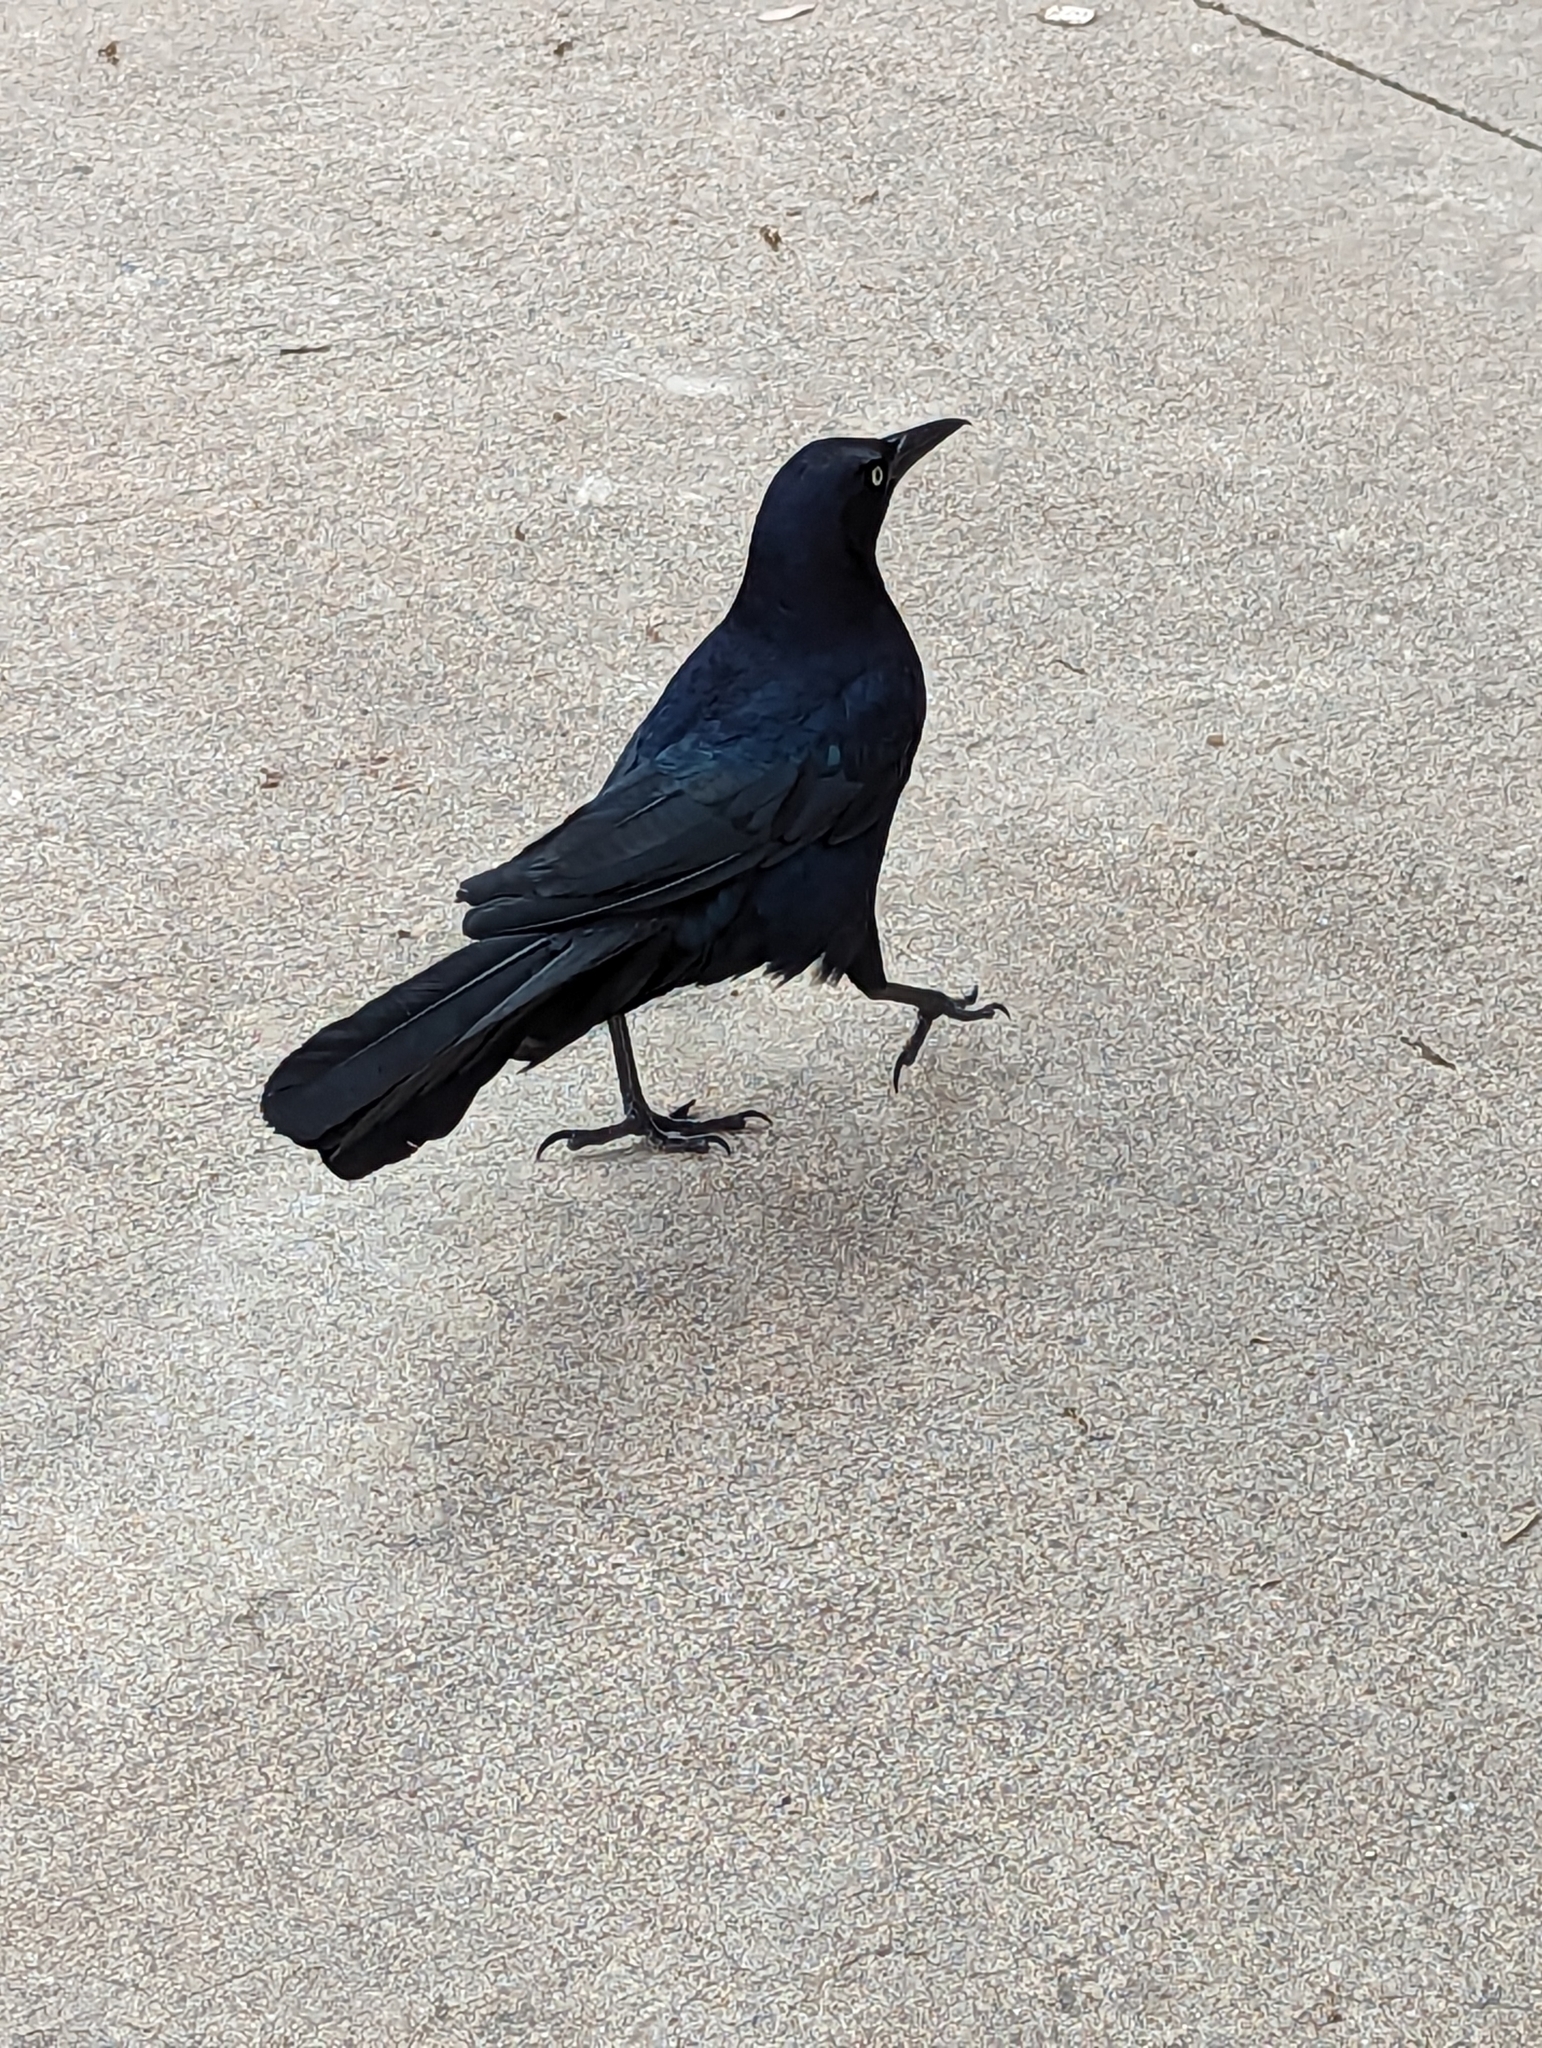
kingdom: Animalia
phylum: Chordata
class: Aves
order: Passeriformes
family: Icteridae
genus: Quiscalus
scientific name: Quiscalus mexicanus
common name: Great-tailed grackle
